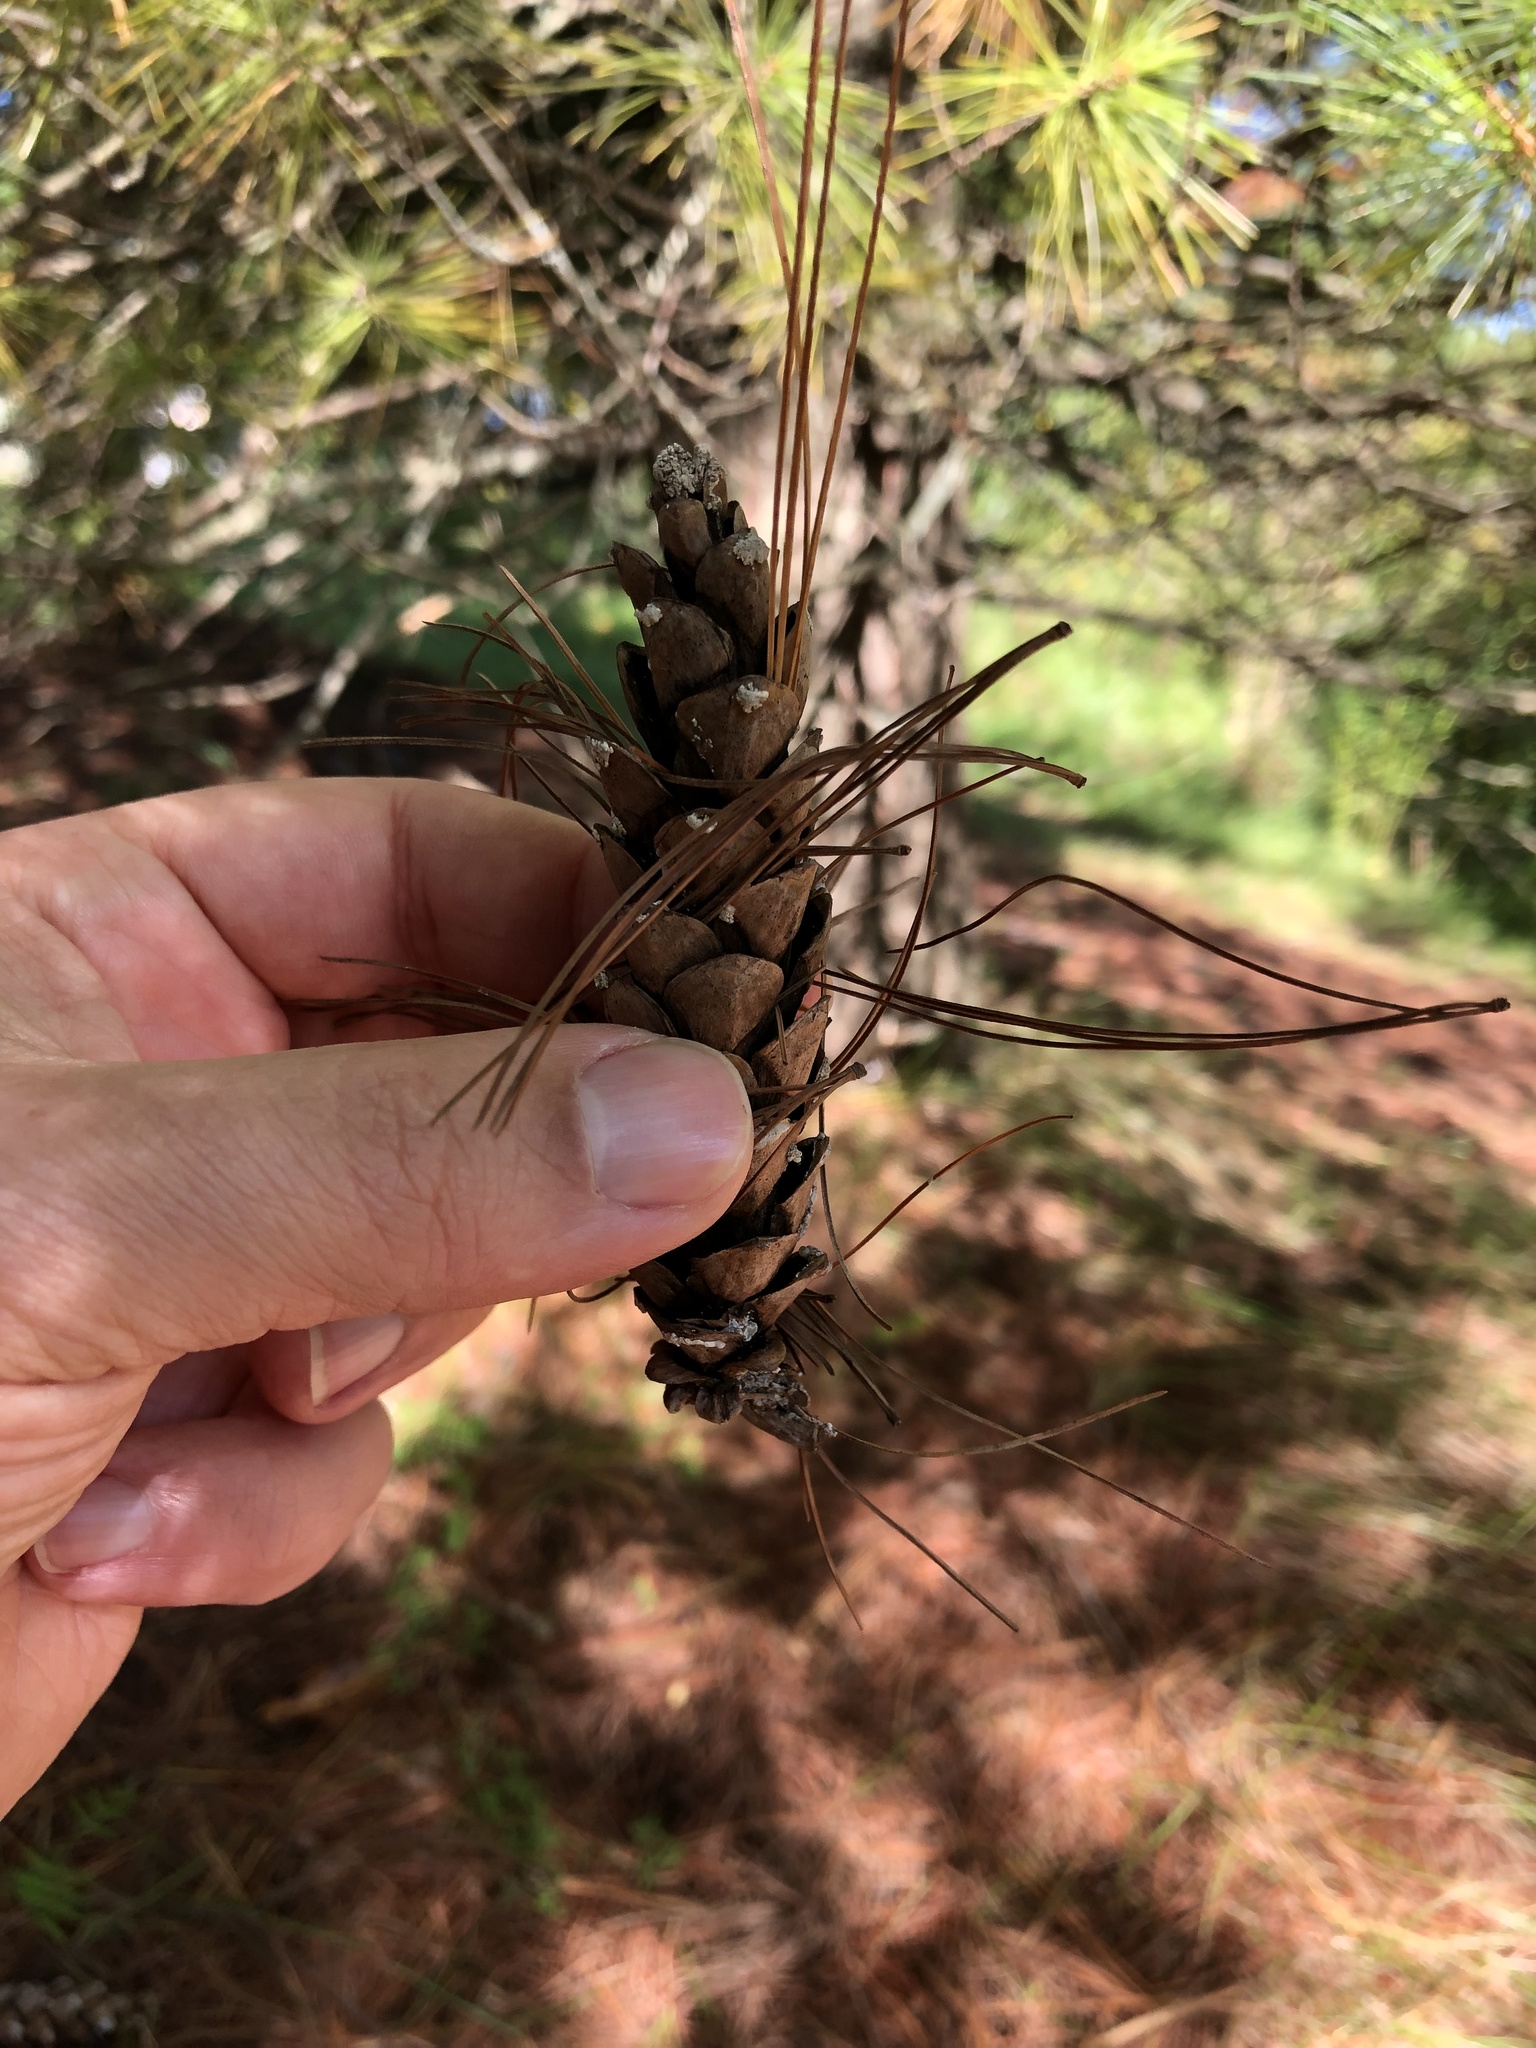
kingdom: Plantae
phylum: Tracheophyta
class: Pinopsida
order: Pinales
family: Pinaceae
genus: Pinus
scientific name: Pinus strobus
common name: Weymouth pine
